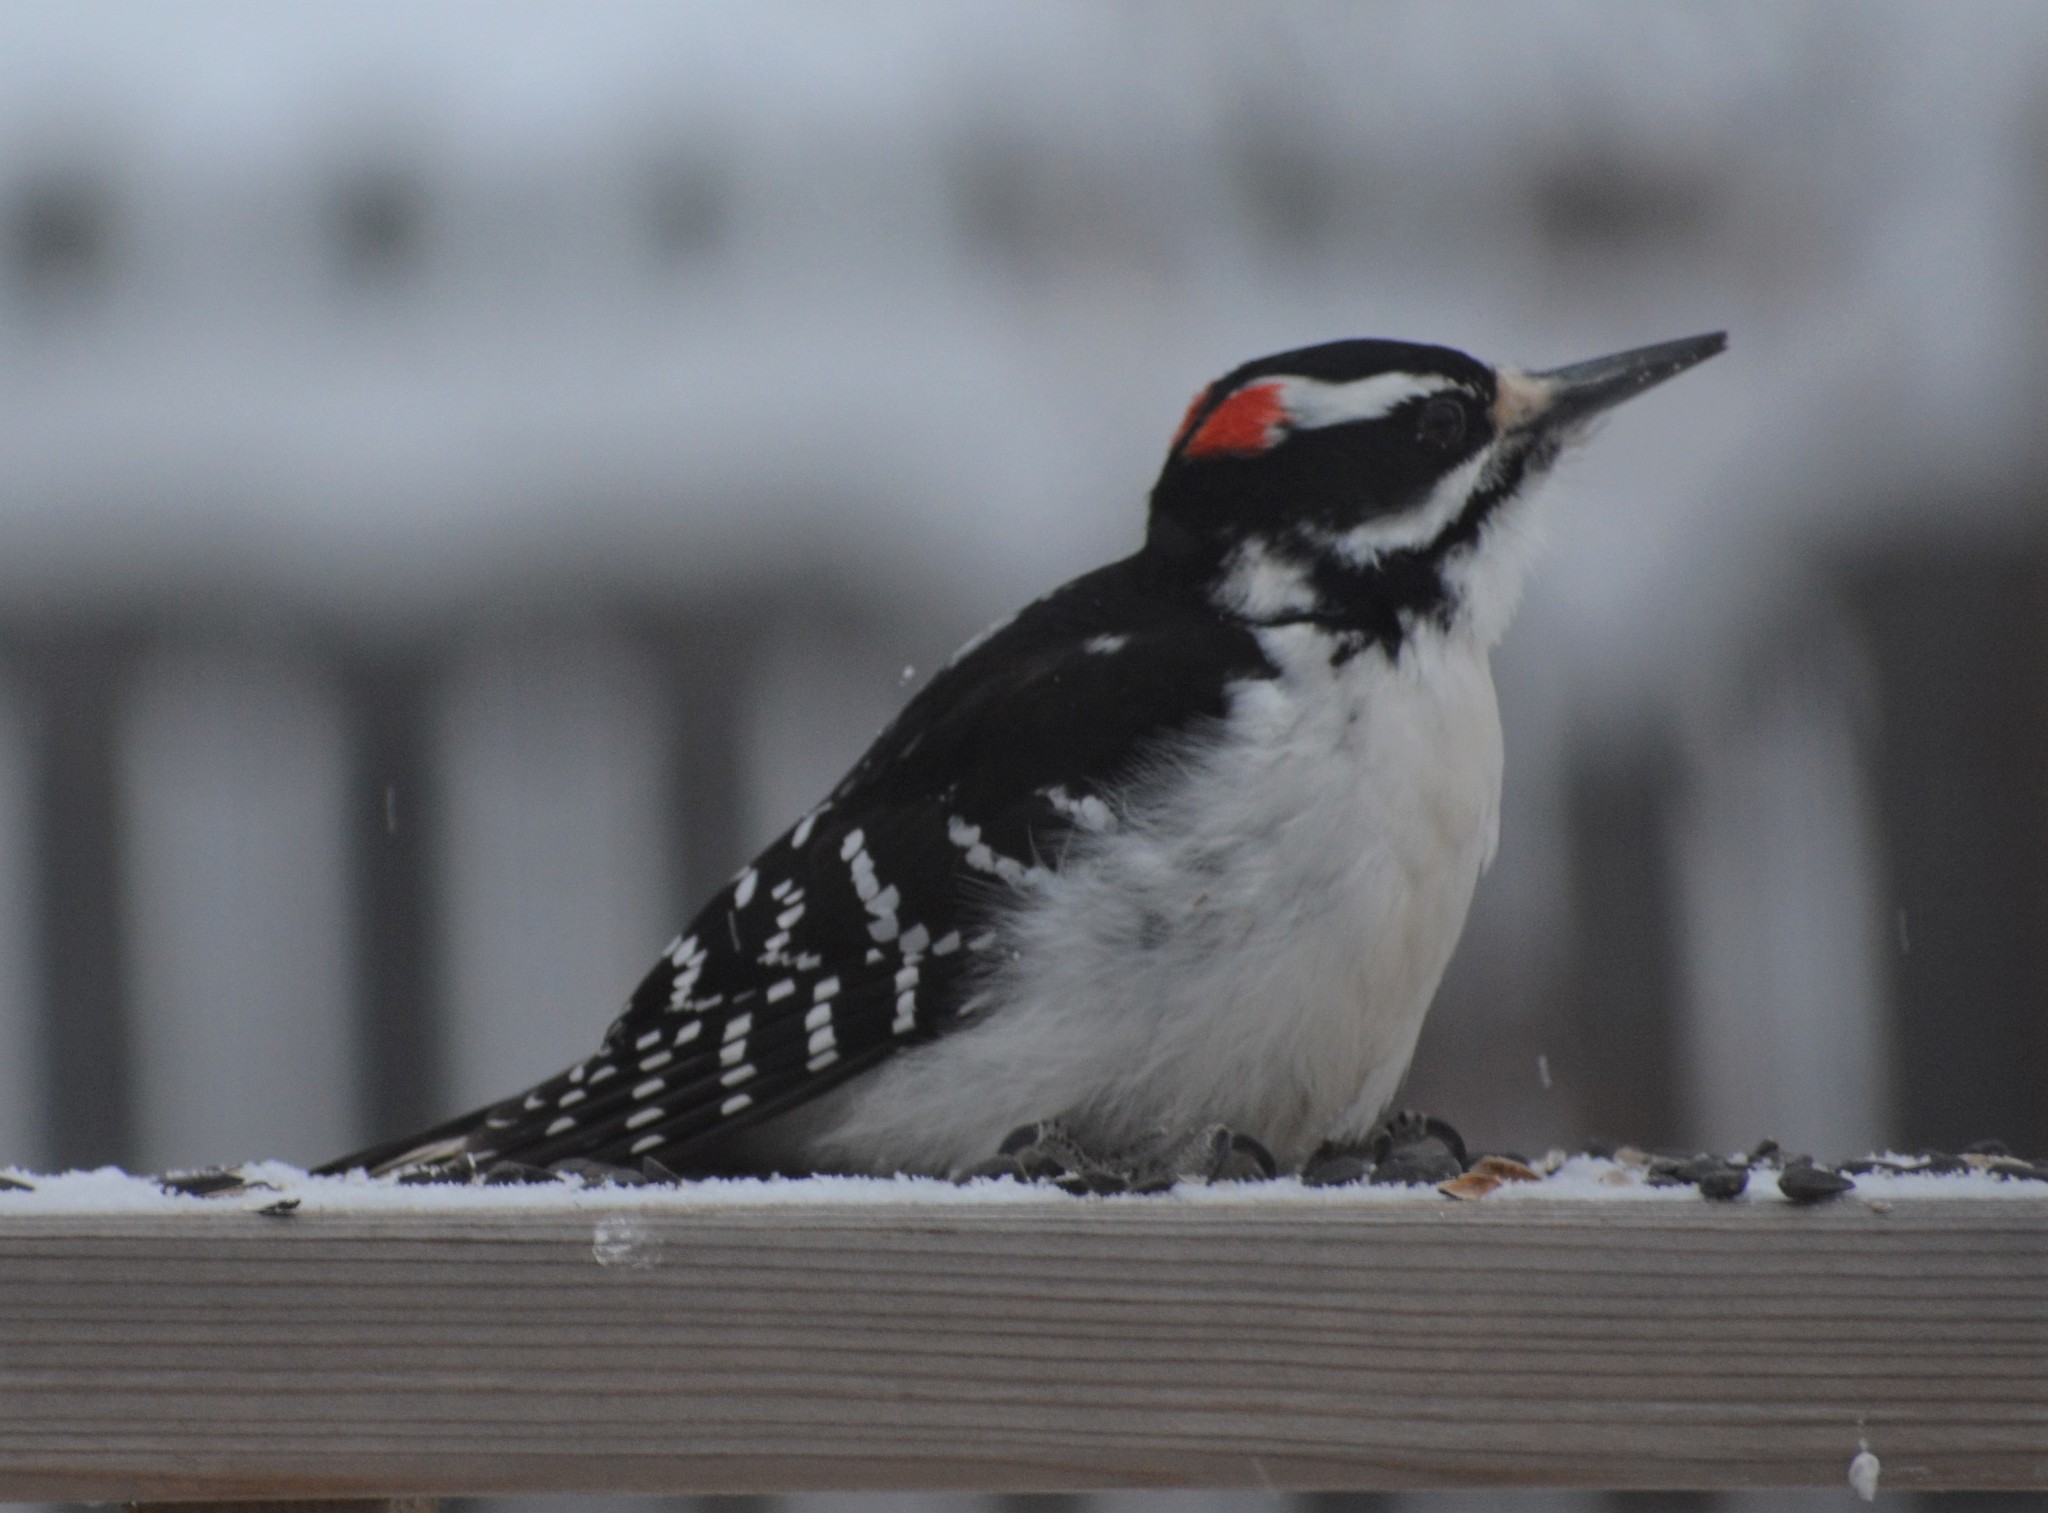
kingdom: Animalia
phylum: Chordata
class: Aves
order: Piciformes
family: Picidae
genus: Leuconotopicus
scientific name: Leuconotopicus villosus
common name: Hairy woodpecker
